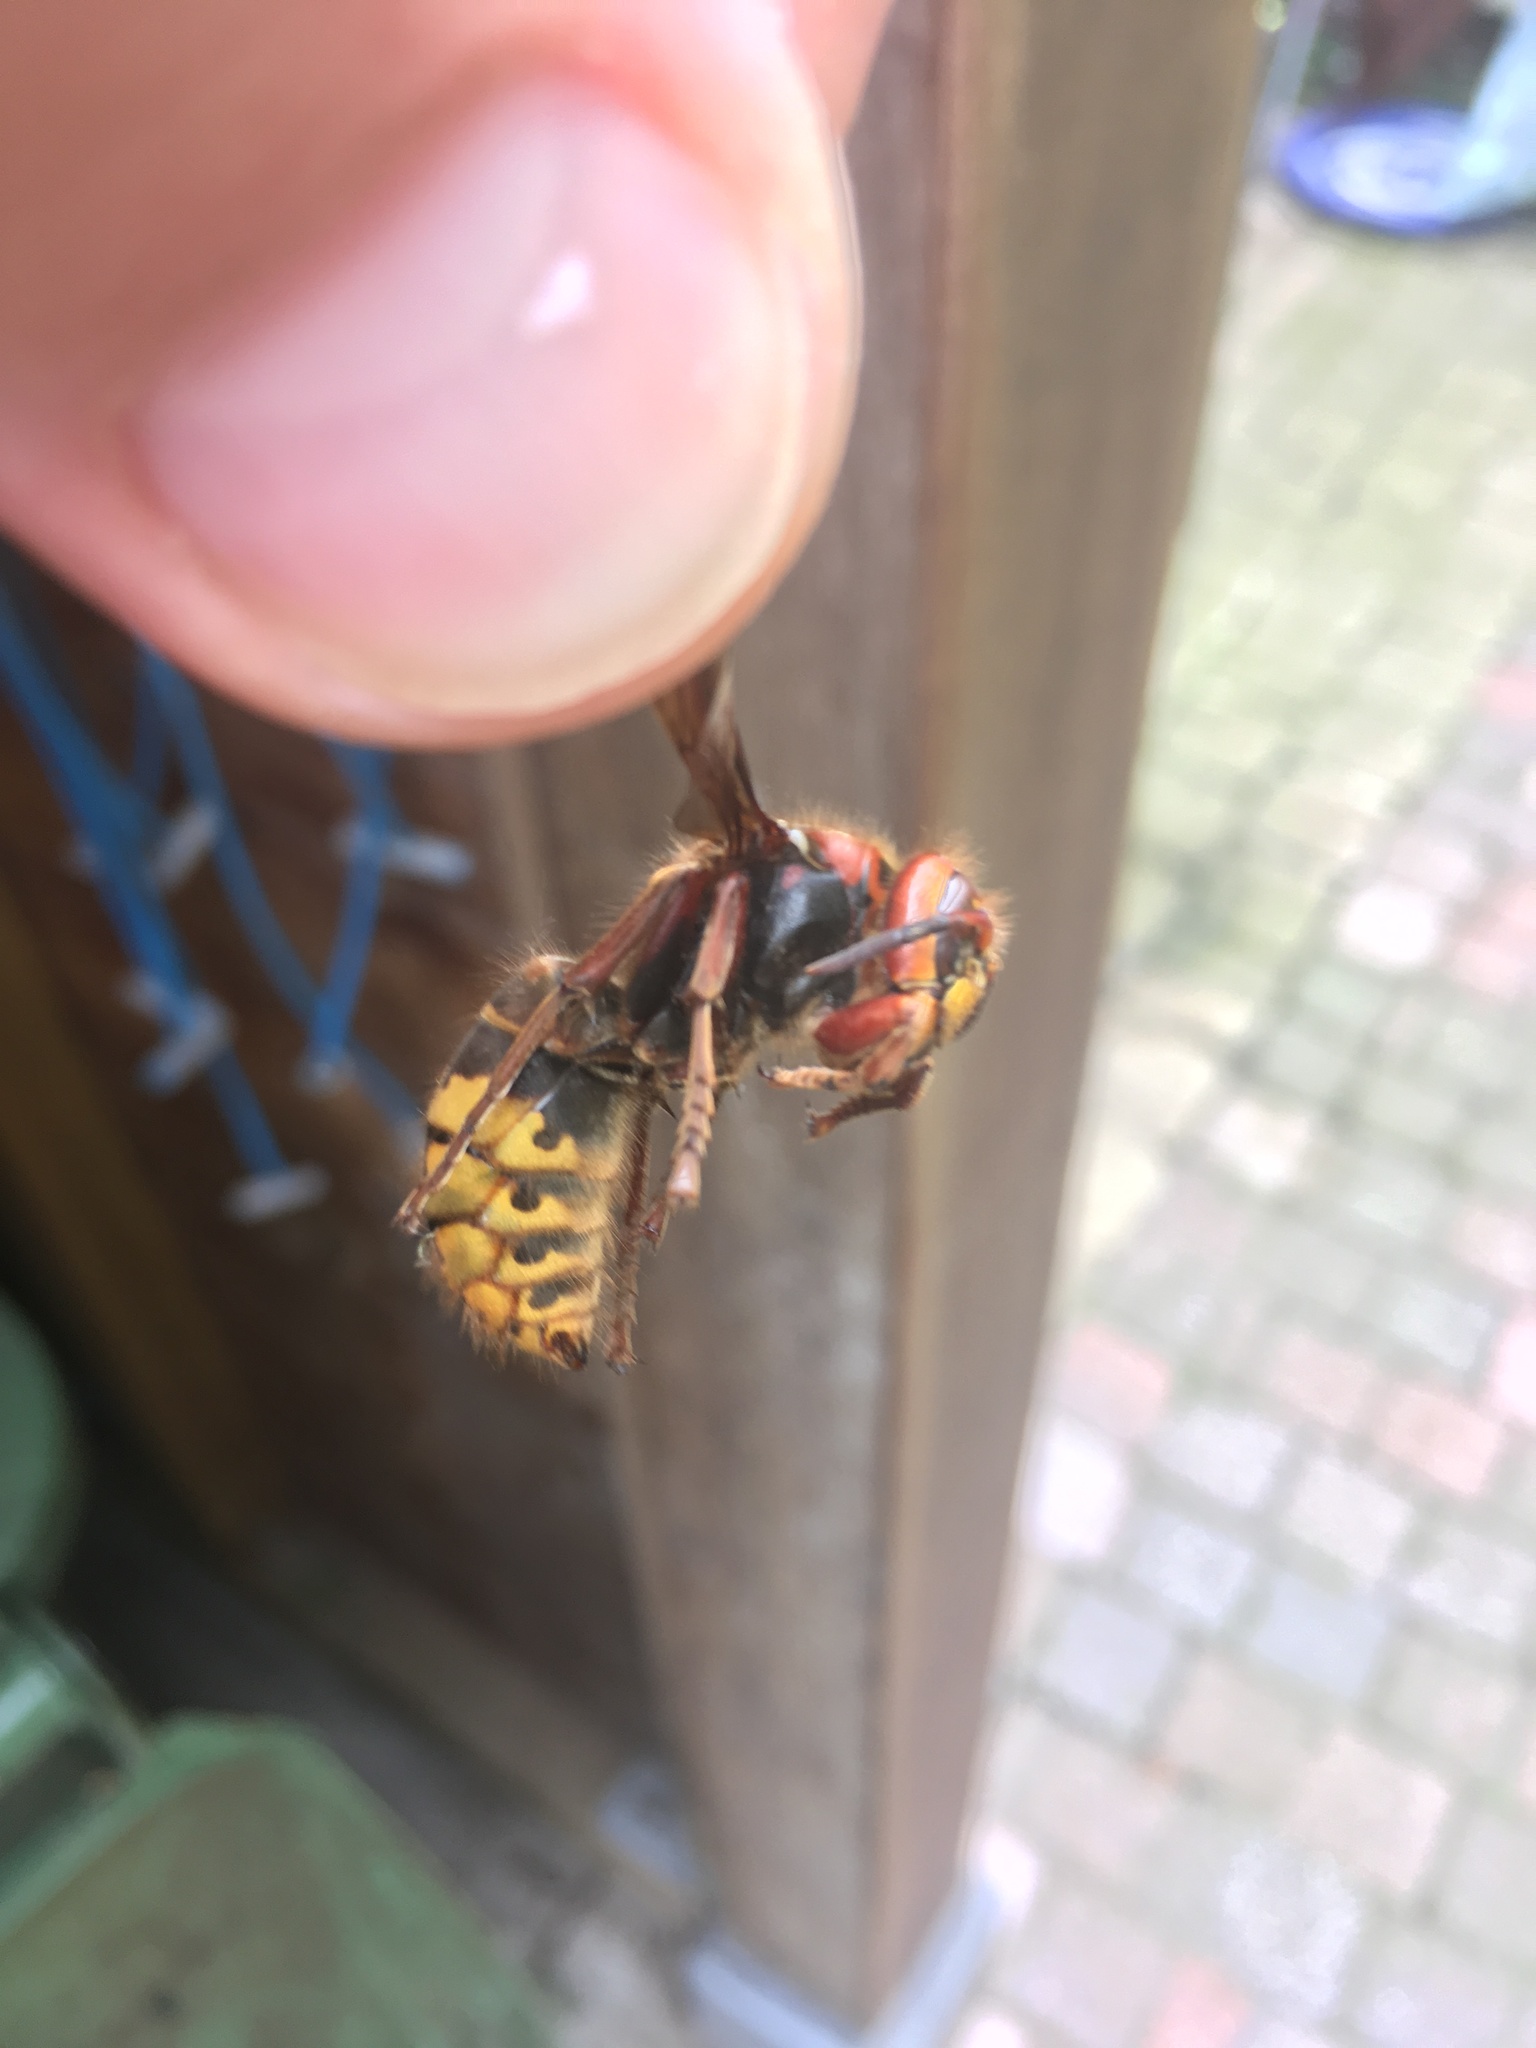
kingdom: Animalia
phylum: Arthropoda
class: Insecta
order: Hymenoptera
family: Vespidae
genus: Vespa
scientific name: Vespa crabro
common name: Hornet
